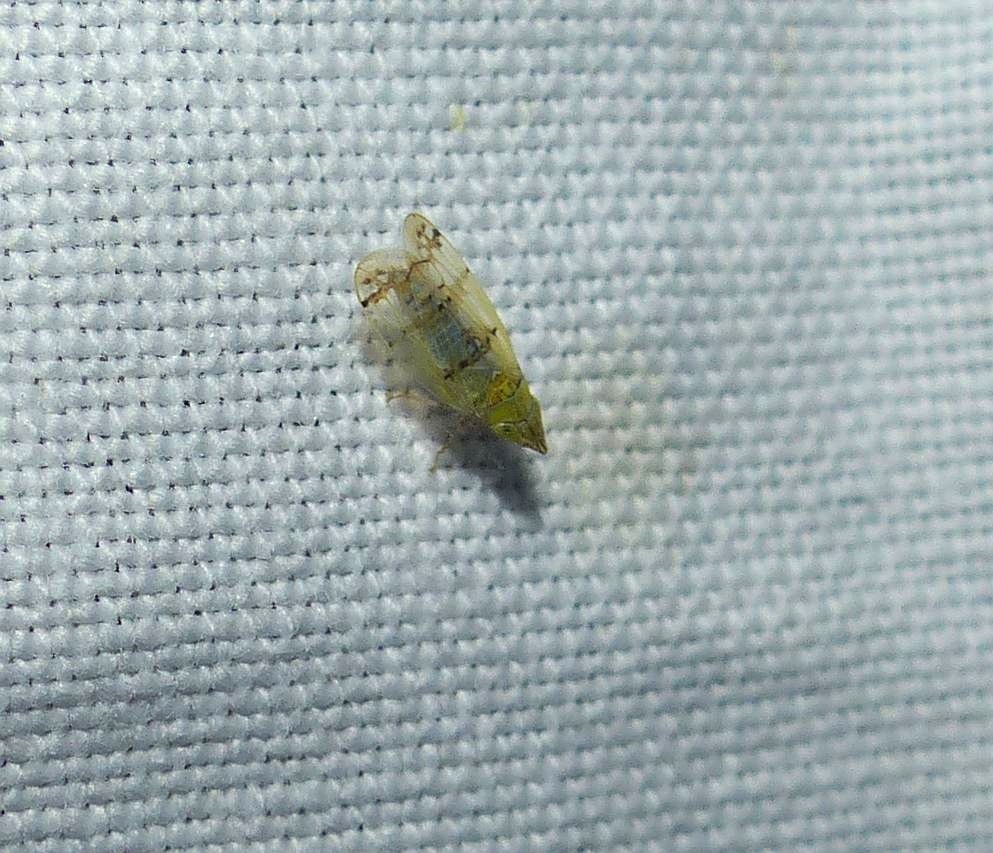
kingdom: Animalia
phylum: Arthropoda
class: Insecta
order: Hemiptera
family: Cicadellidae
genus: Japananus
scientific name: Japananus hyalinus
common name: The japanese maple leafhopper
